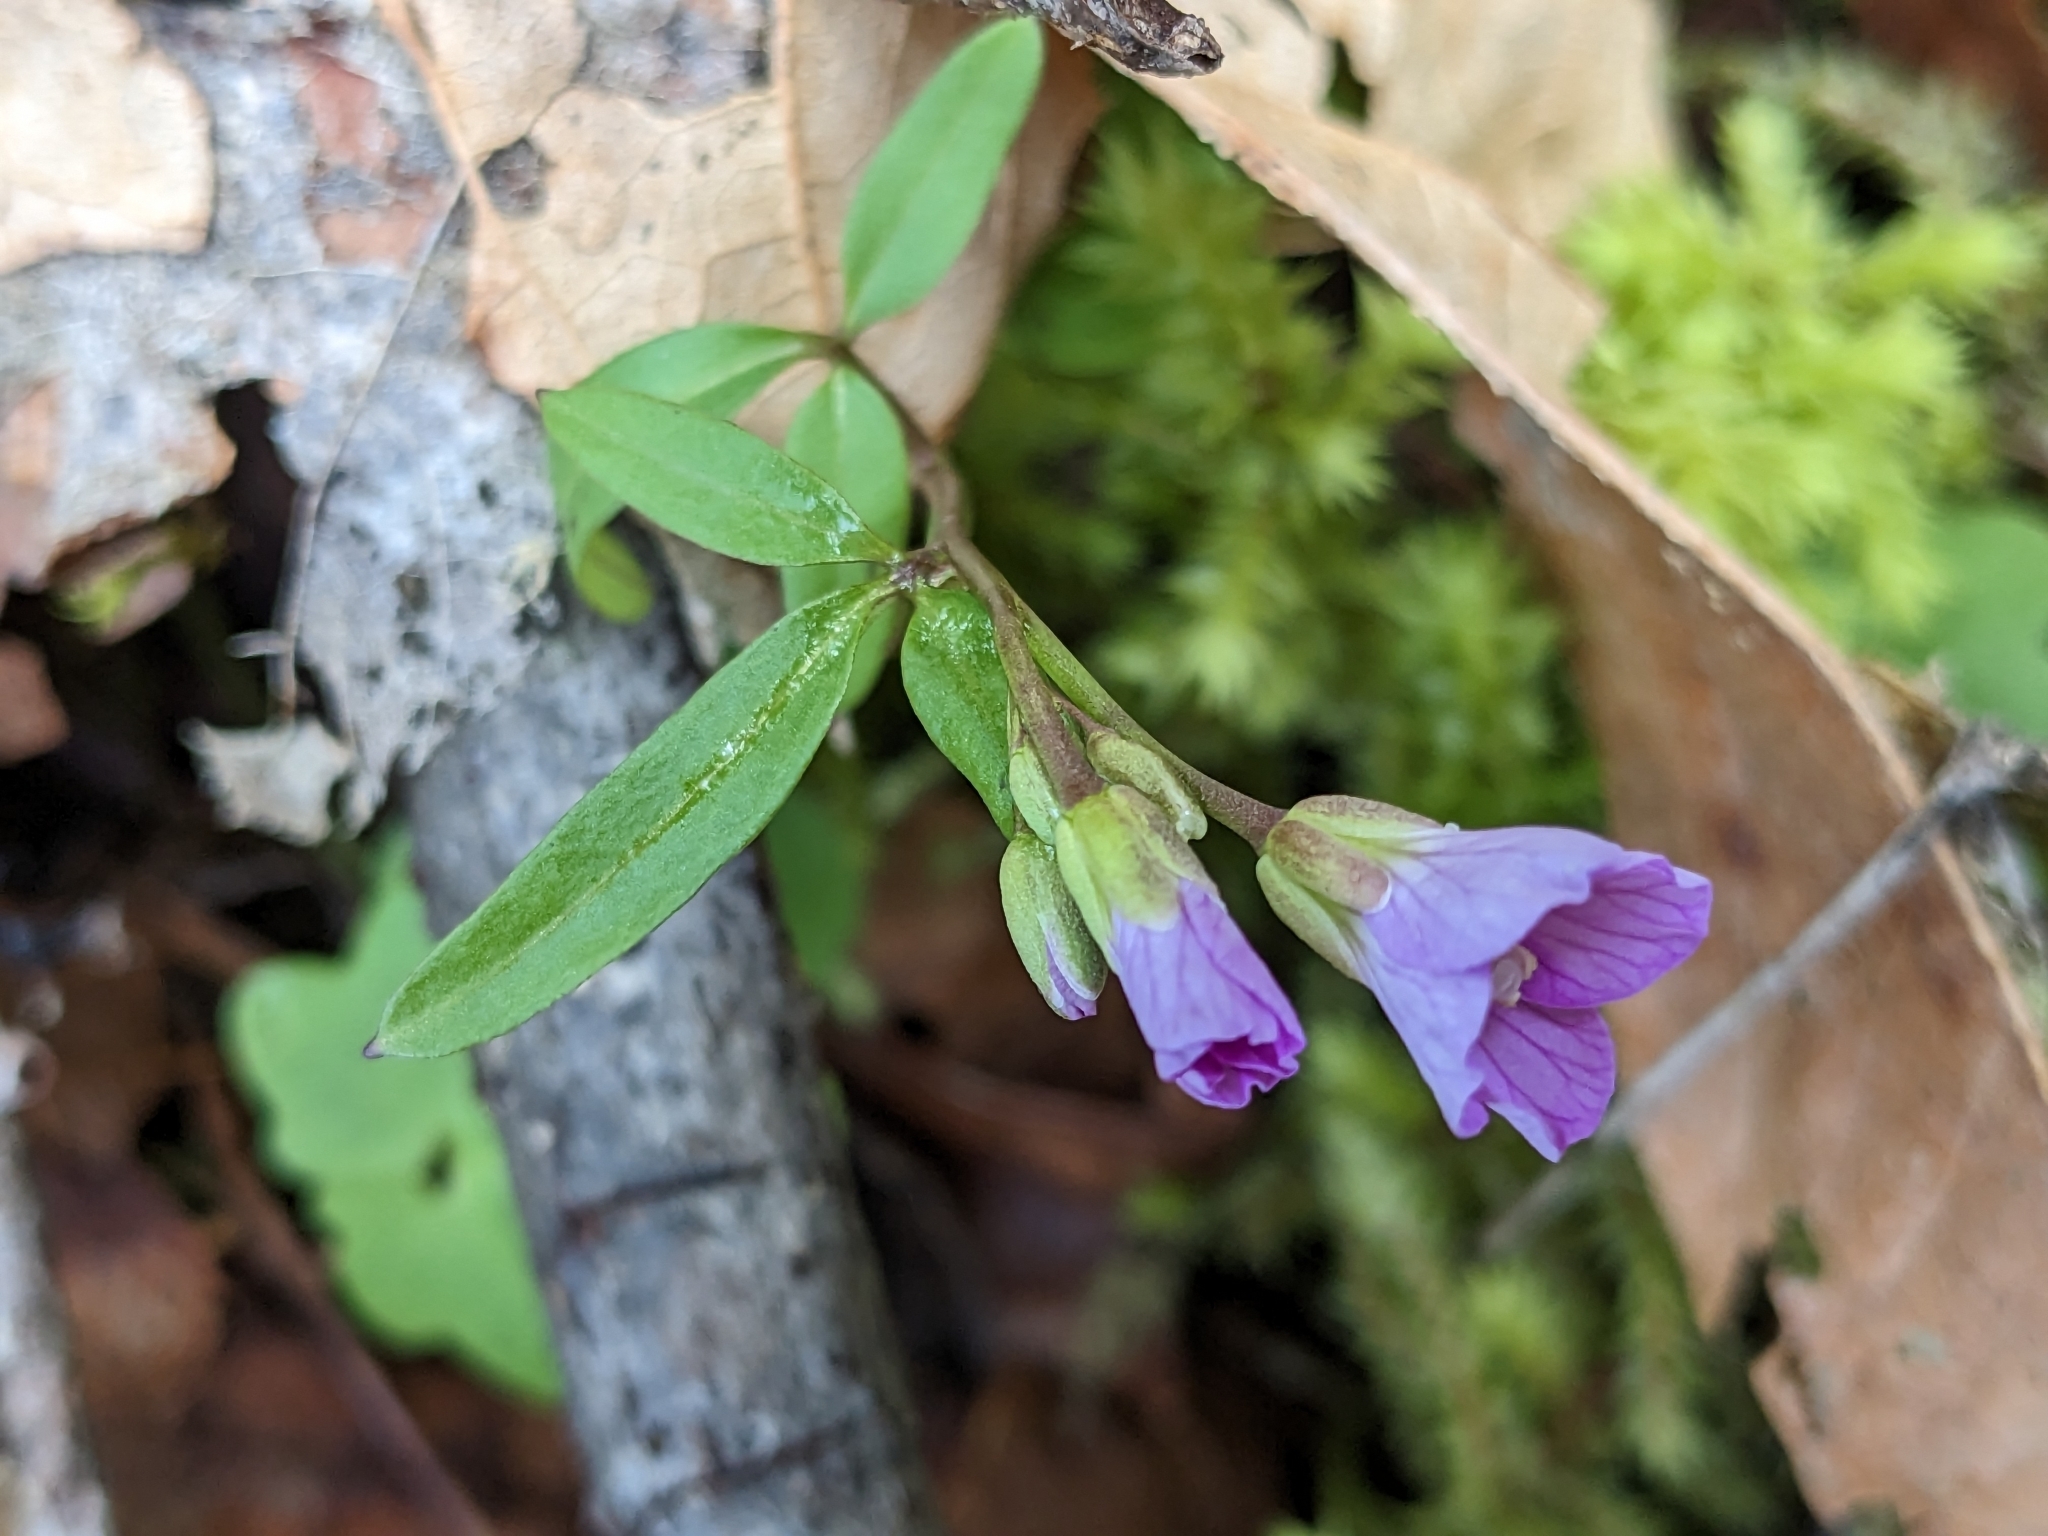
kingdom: Plantae
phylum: Tracheophyta
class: Magnoliopsida
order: Brassicales
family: Brassicaceae
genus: Cardamine
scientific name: Cardamine nuttallii
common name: Nuttall's toothwort
